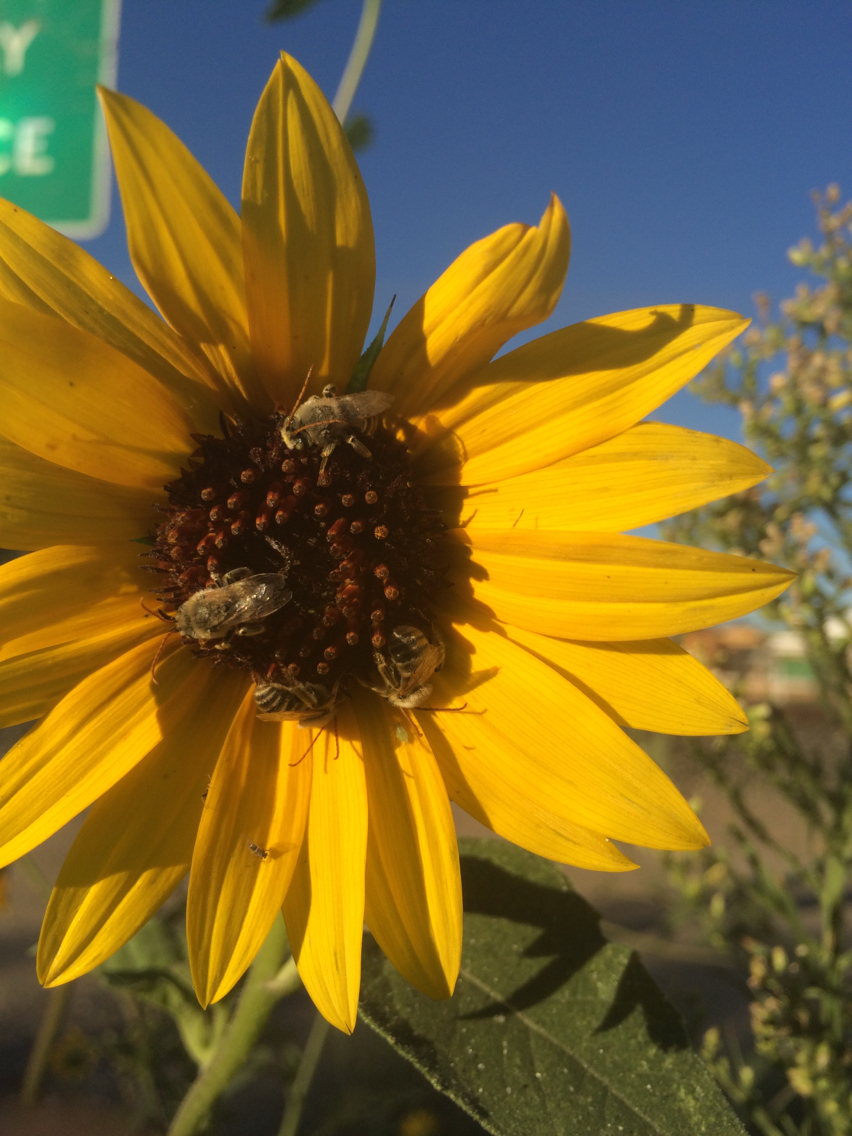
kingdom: Animalia
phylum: Arthropoda
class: Insecta
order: Hymenoptera
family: Apidae
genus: Melissodes
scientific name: Melissodes
